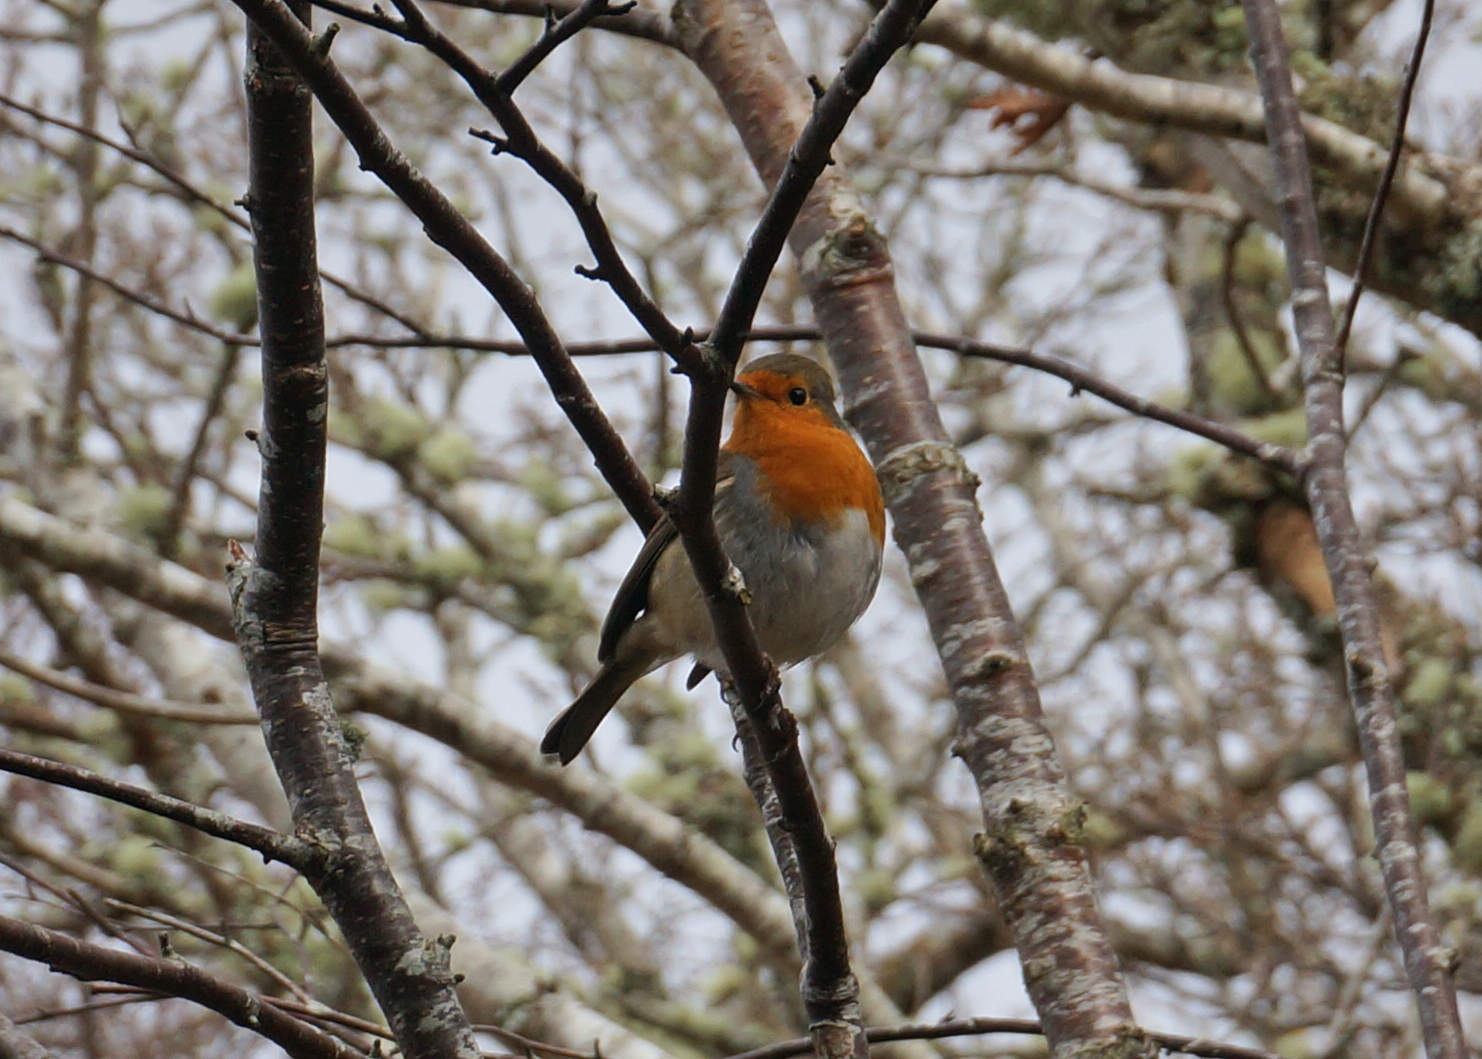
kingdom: Animalia
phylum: Chordata
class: Aves
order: Passeriformes
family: Muscicapidae
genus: Erithacus
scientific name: Erithacus rubecula
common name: European robin
